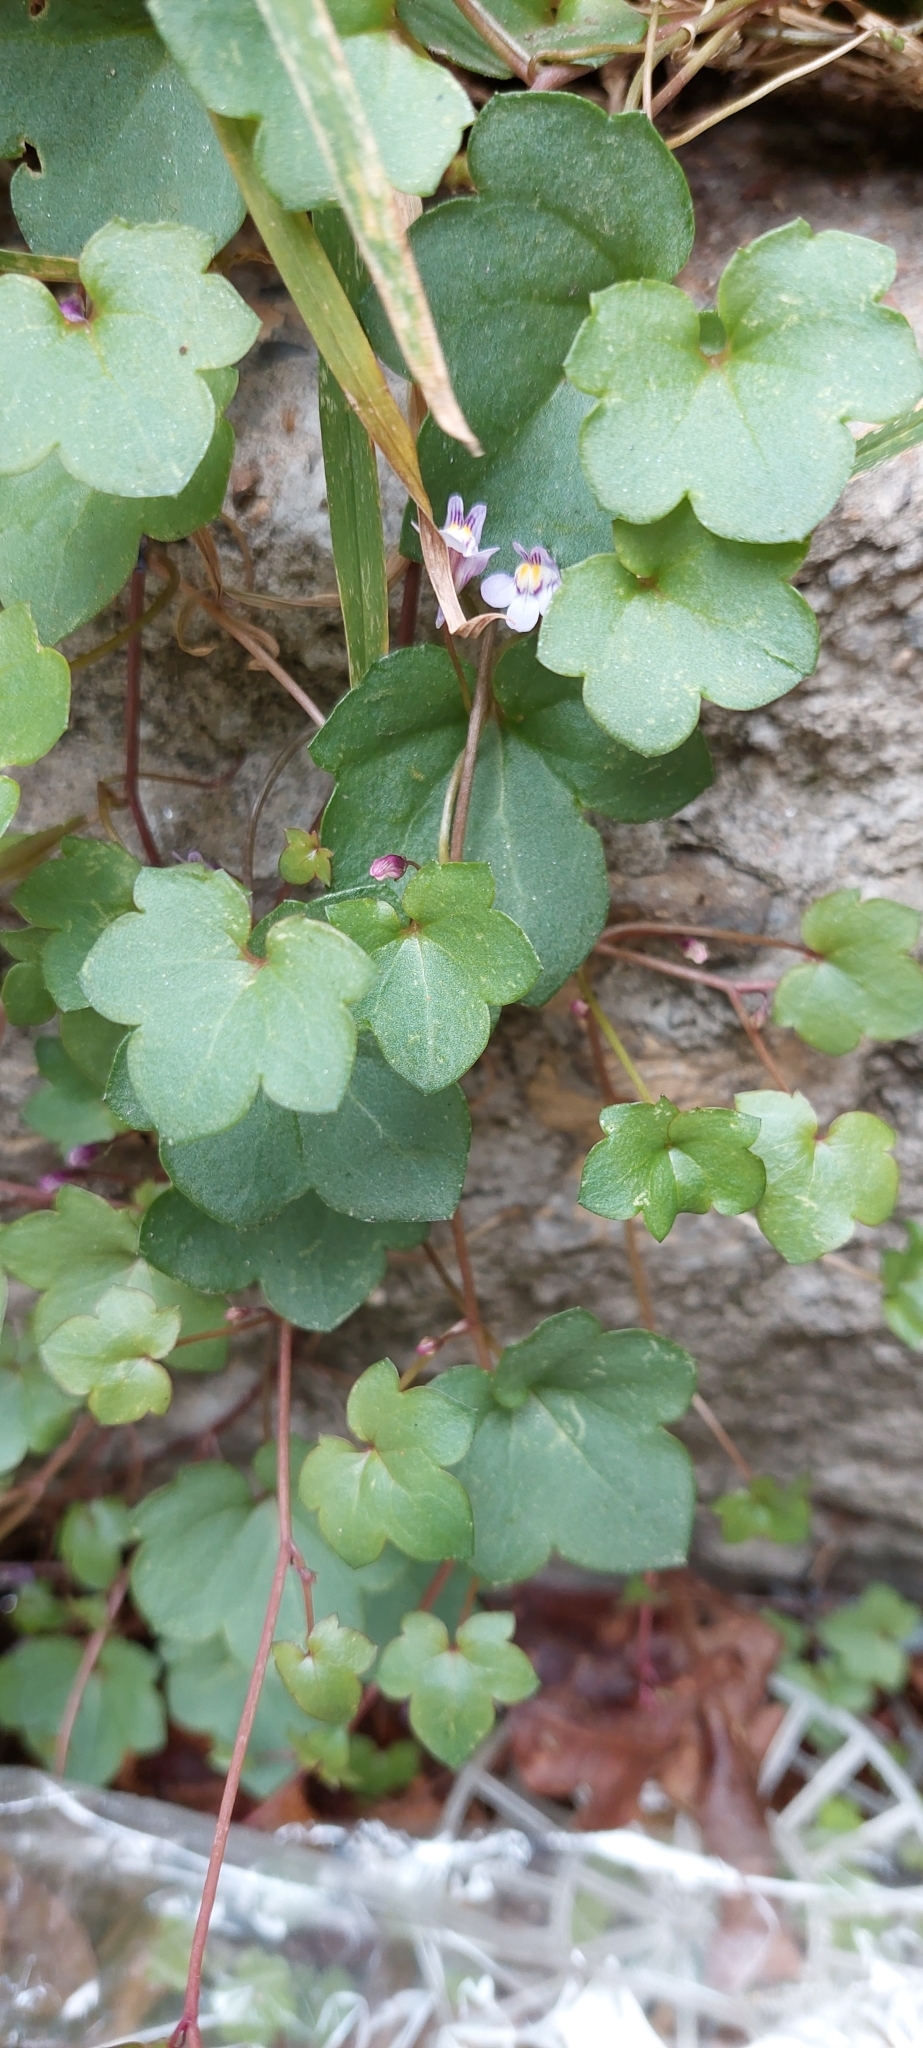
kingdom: Plantae
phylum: Tracheophyta
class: Magnoliopsida
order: Lamiales
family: Plantaginaceae
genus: Cymbalaria
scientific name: Cymbalaria muralis
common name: Ivy-leaved toadflax
